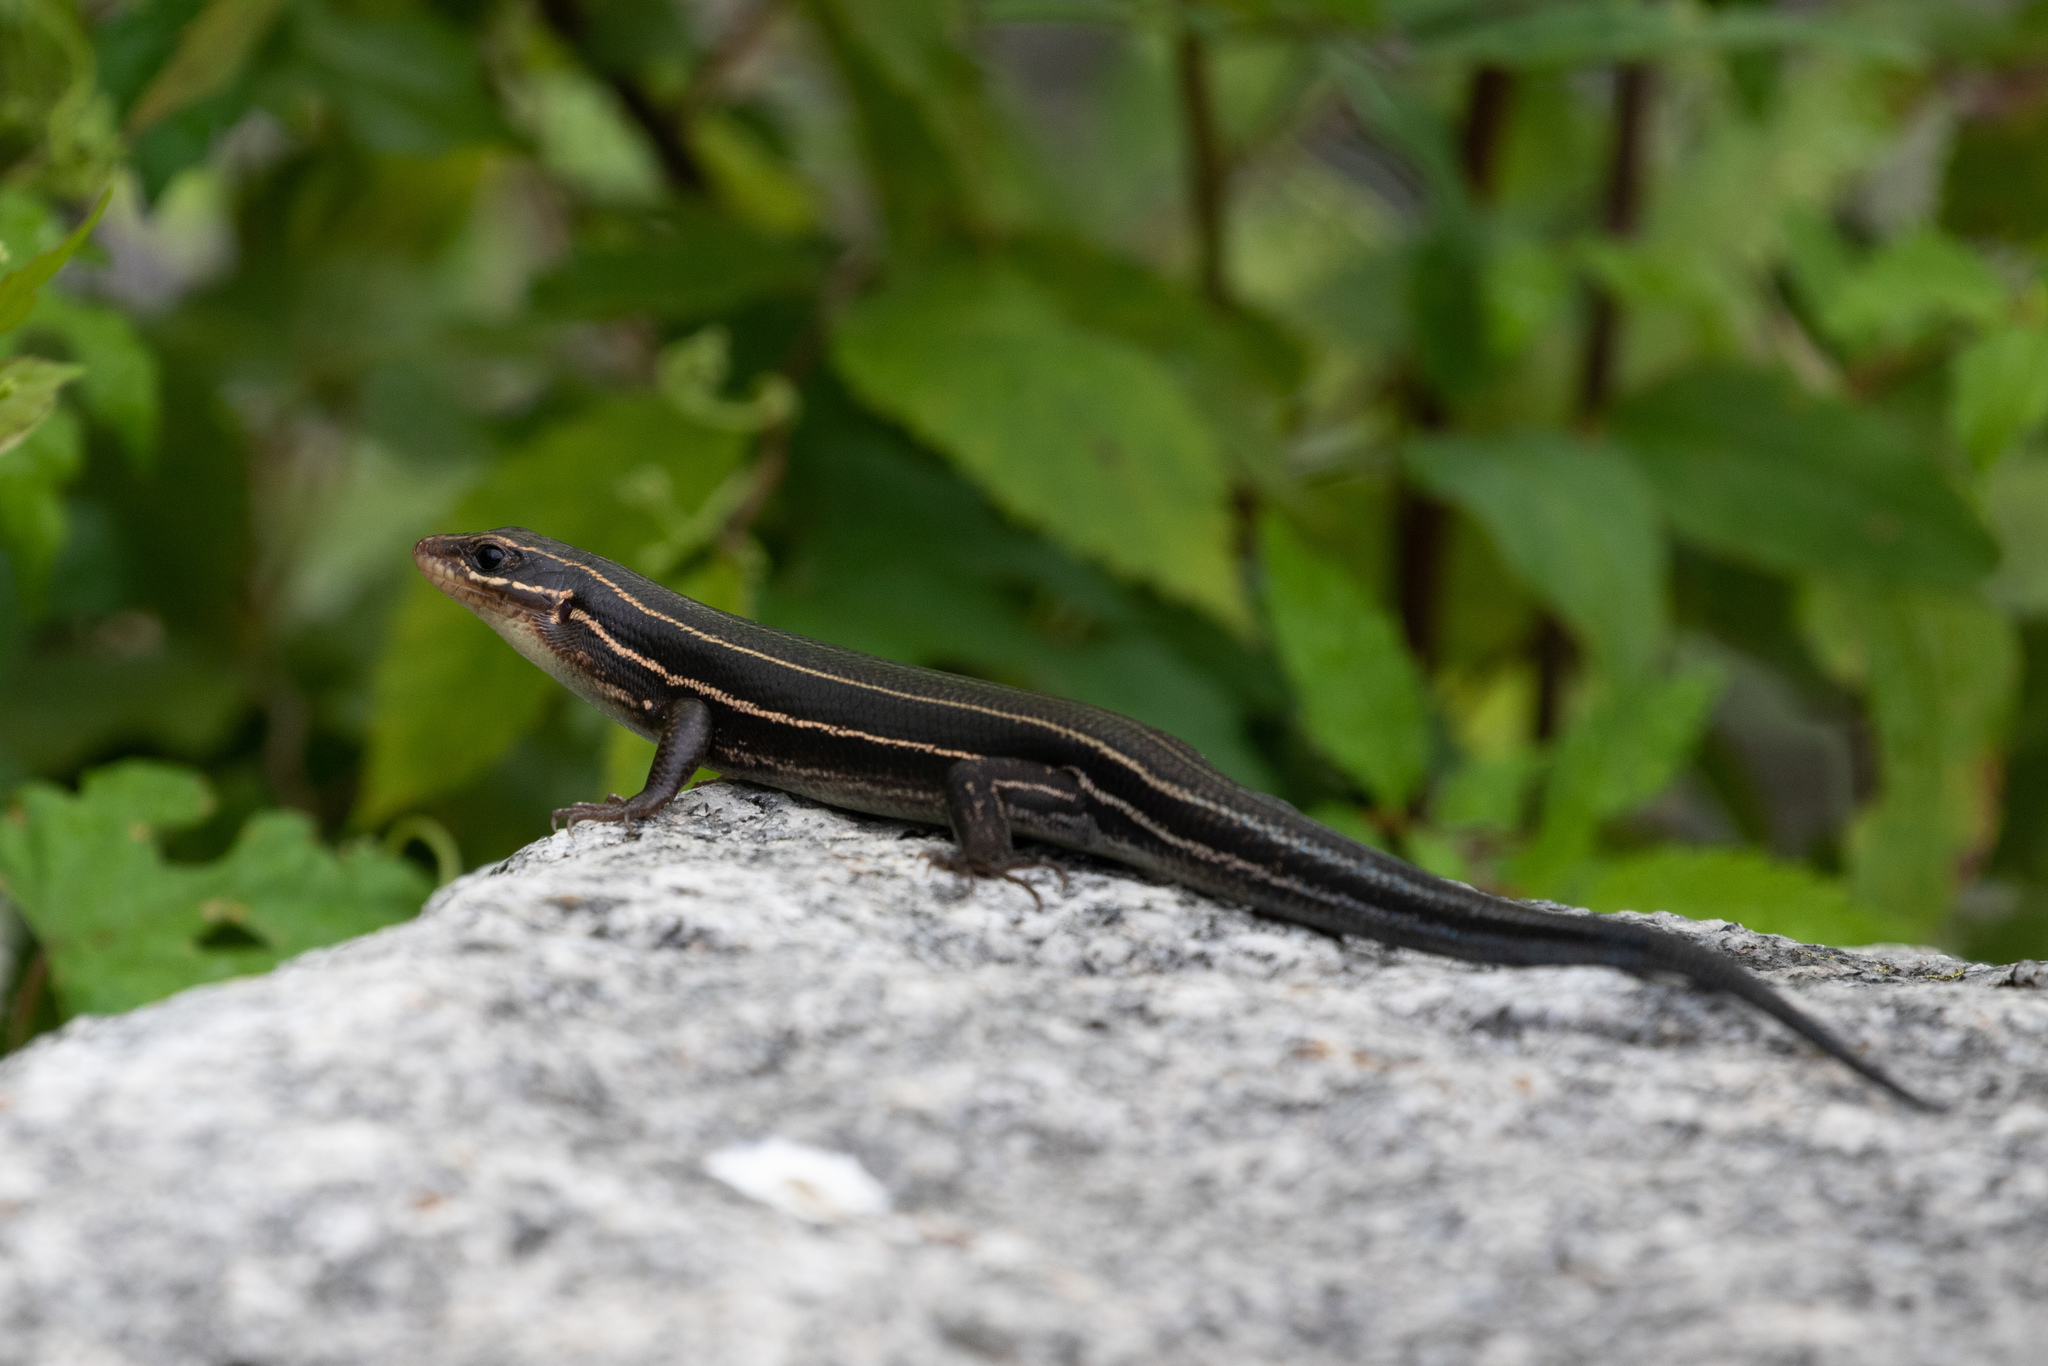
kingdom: Animalia
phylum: Chordata
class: Squamata
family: Scincidae
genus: Plestiodon
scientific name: Plestiodon laticeps
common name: Broadhead skink
